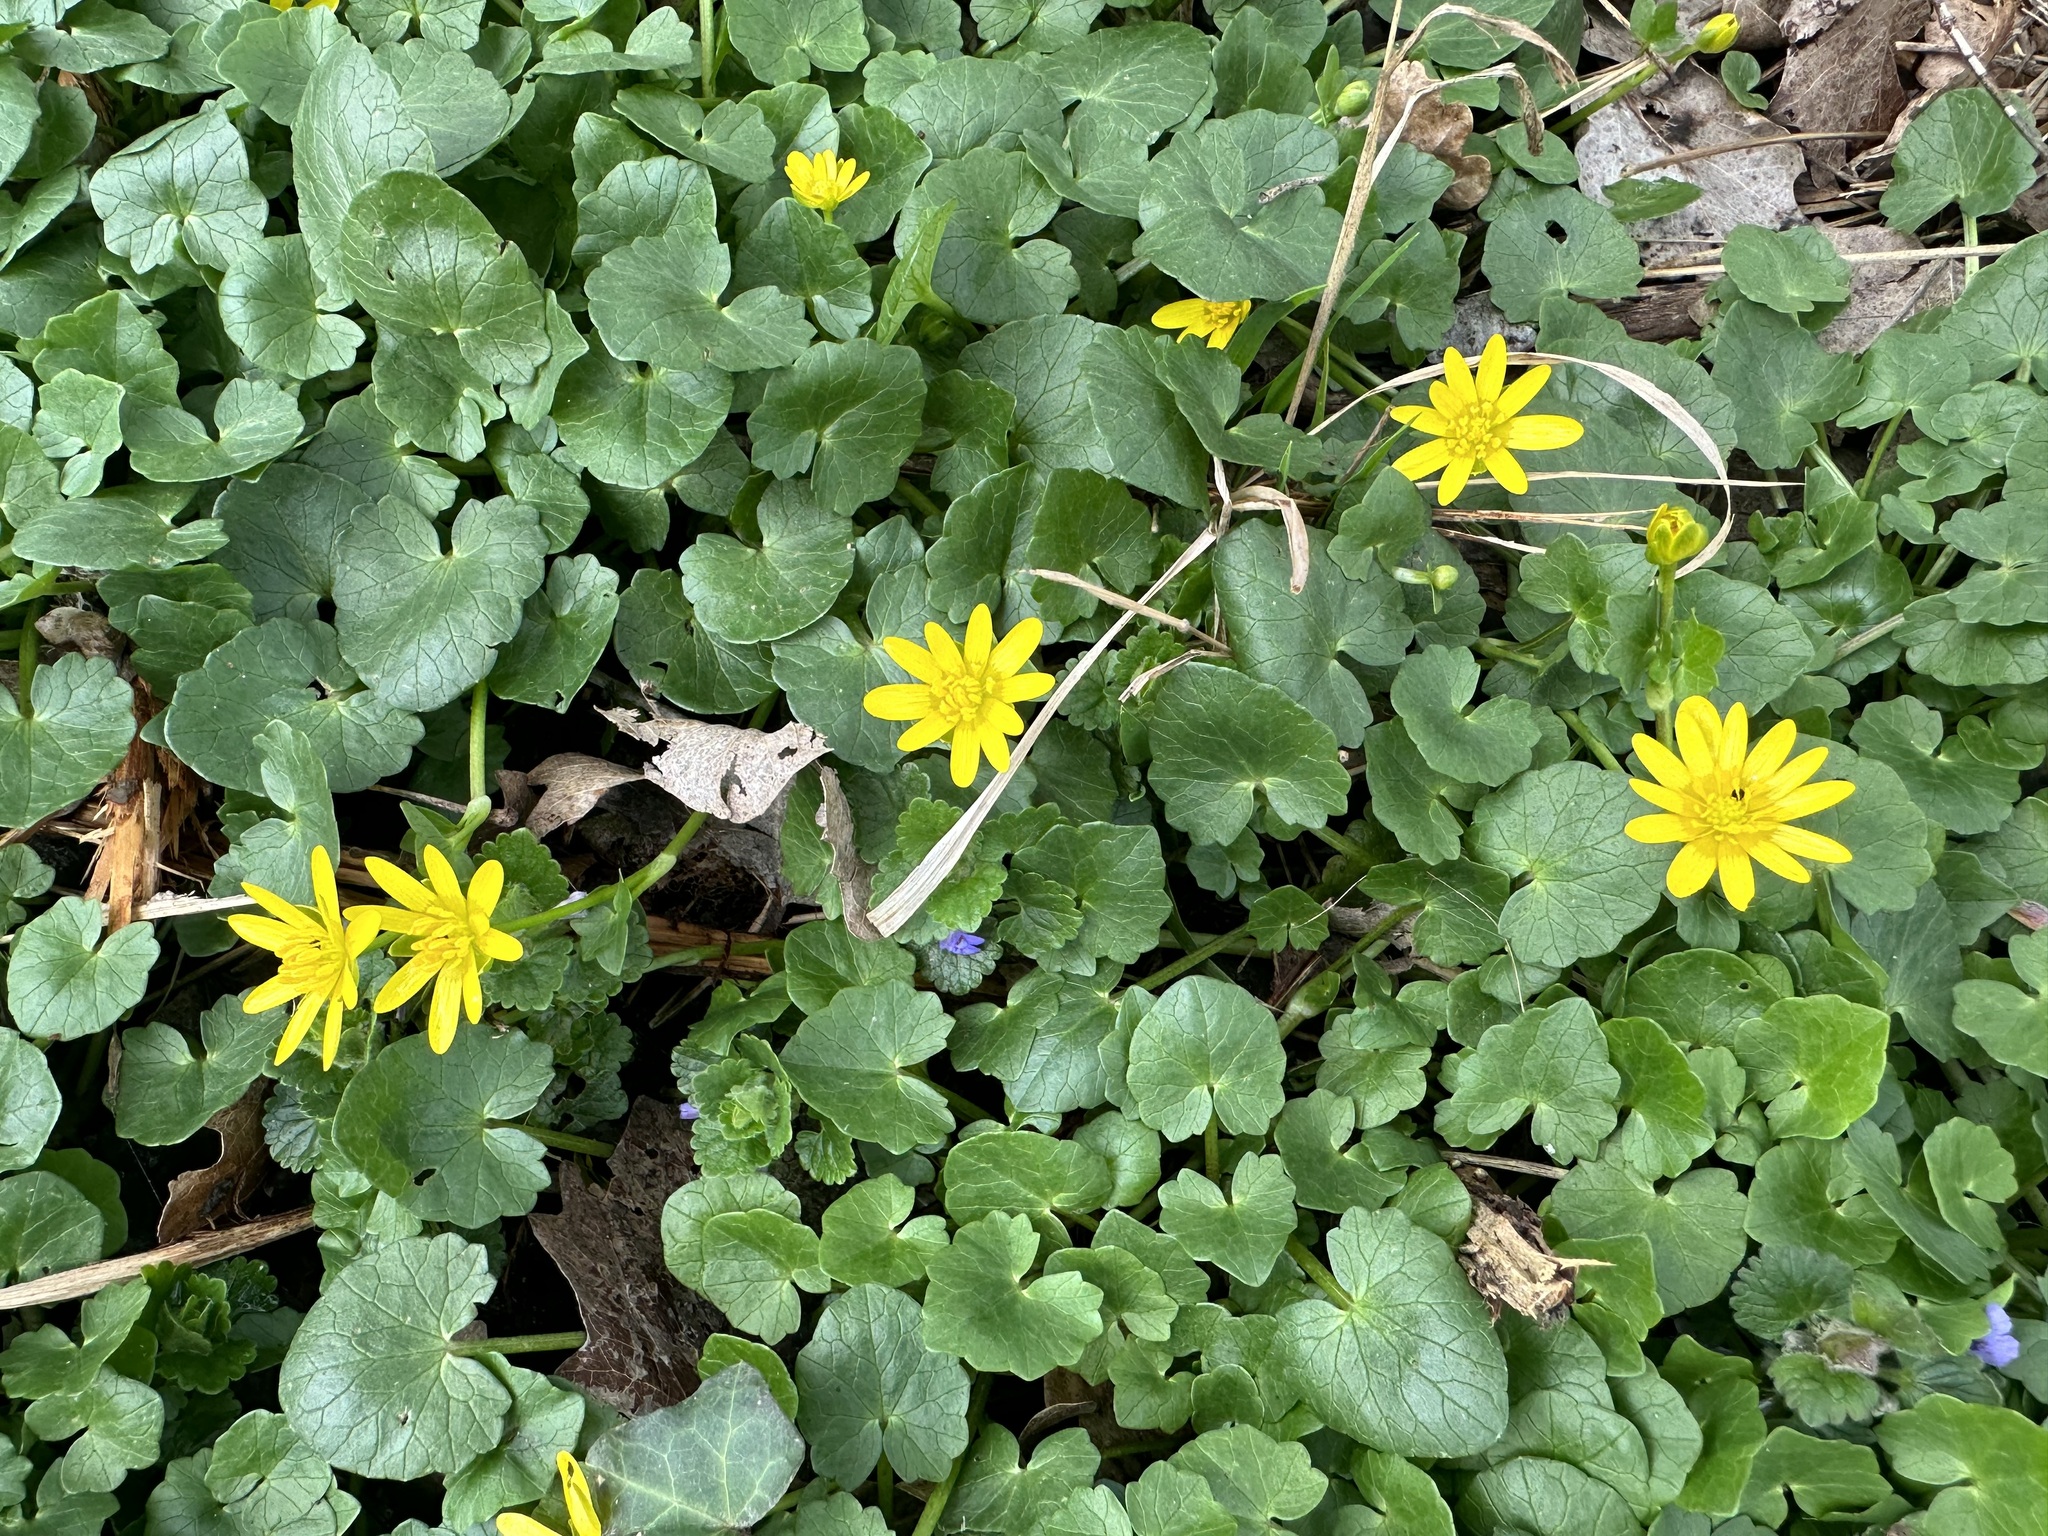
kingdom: Plantae
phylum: Tracheophyta
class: Magnoliopsida
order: Ranunculales
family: Ranunculaceae
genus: Ficaria
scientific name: Ficaria verna
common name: Lesser celandine
